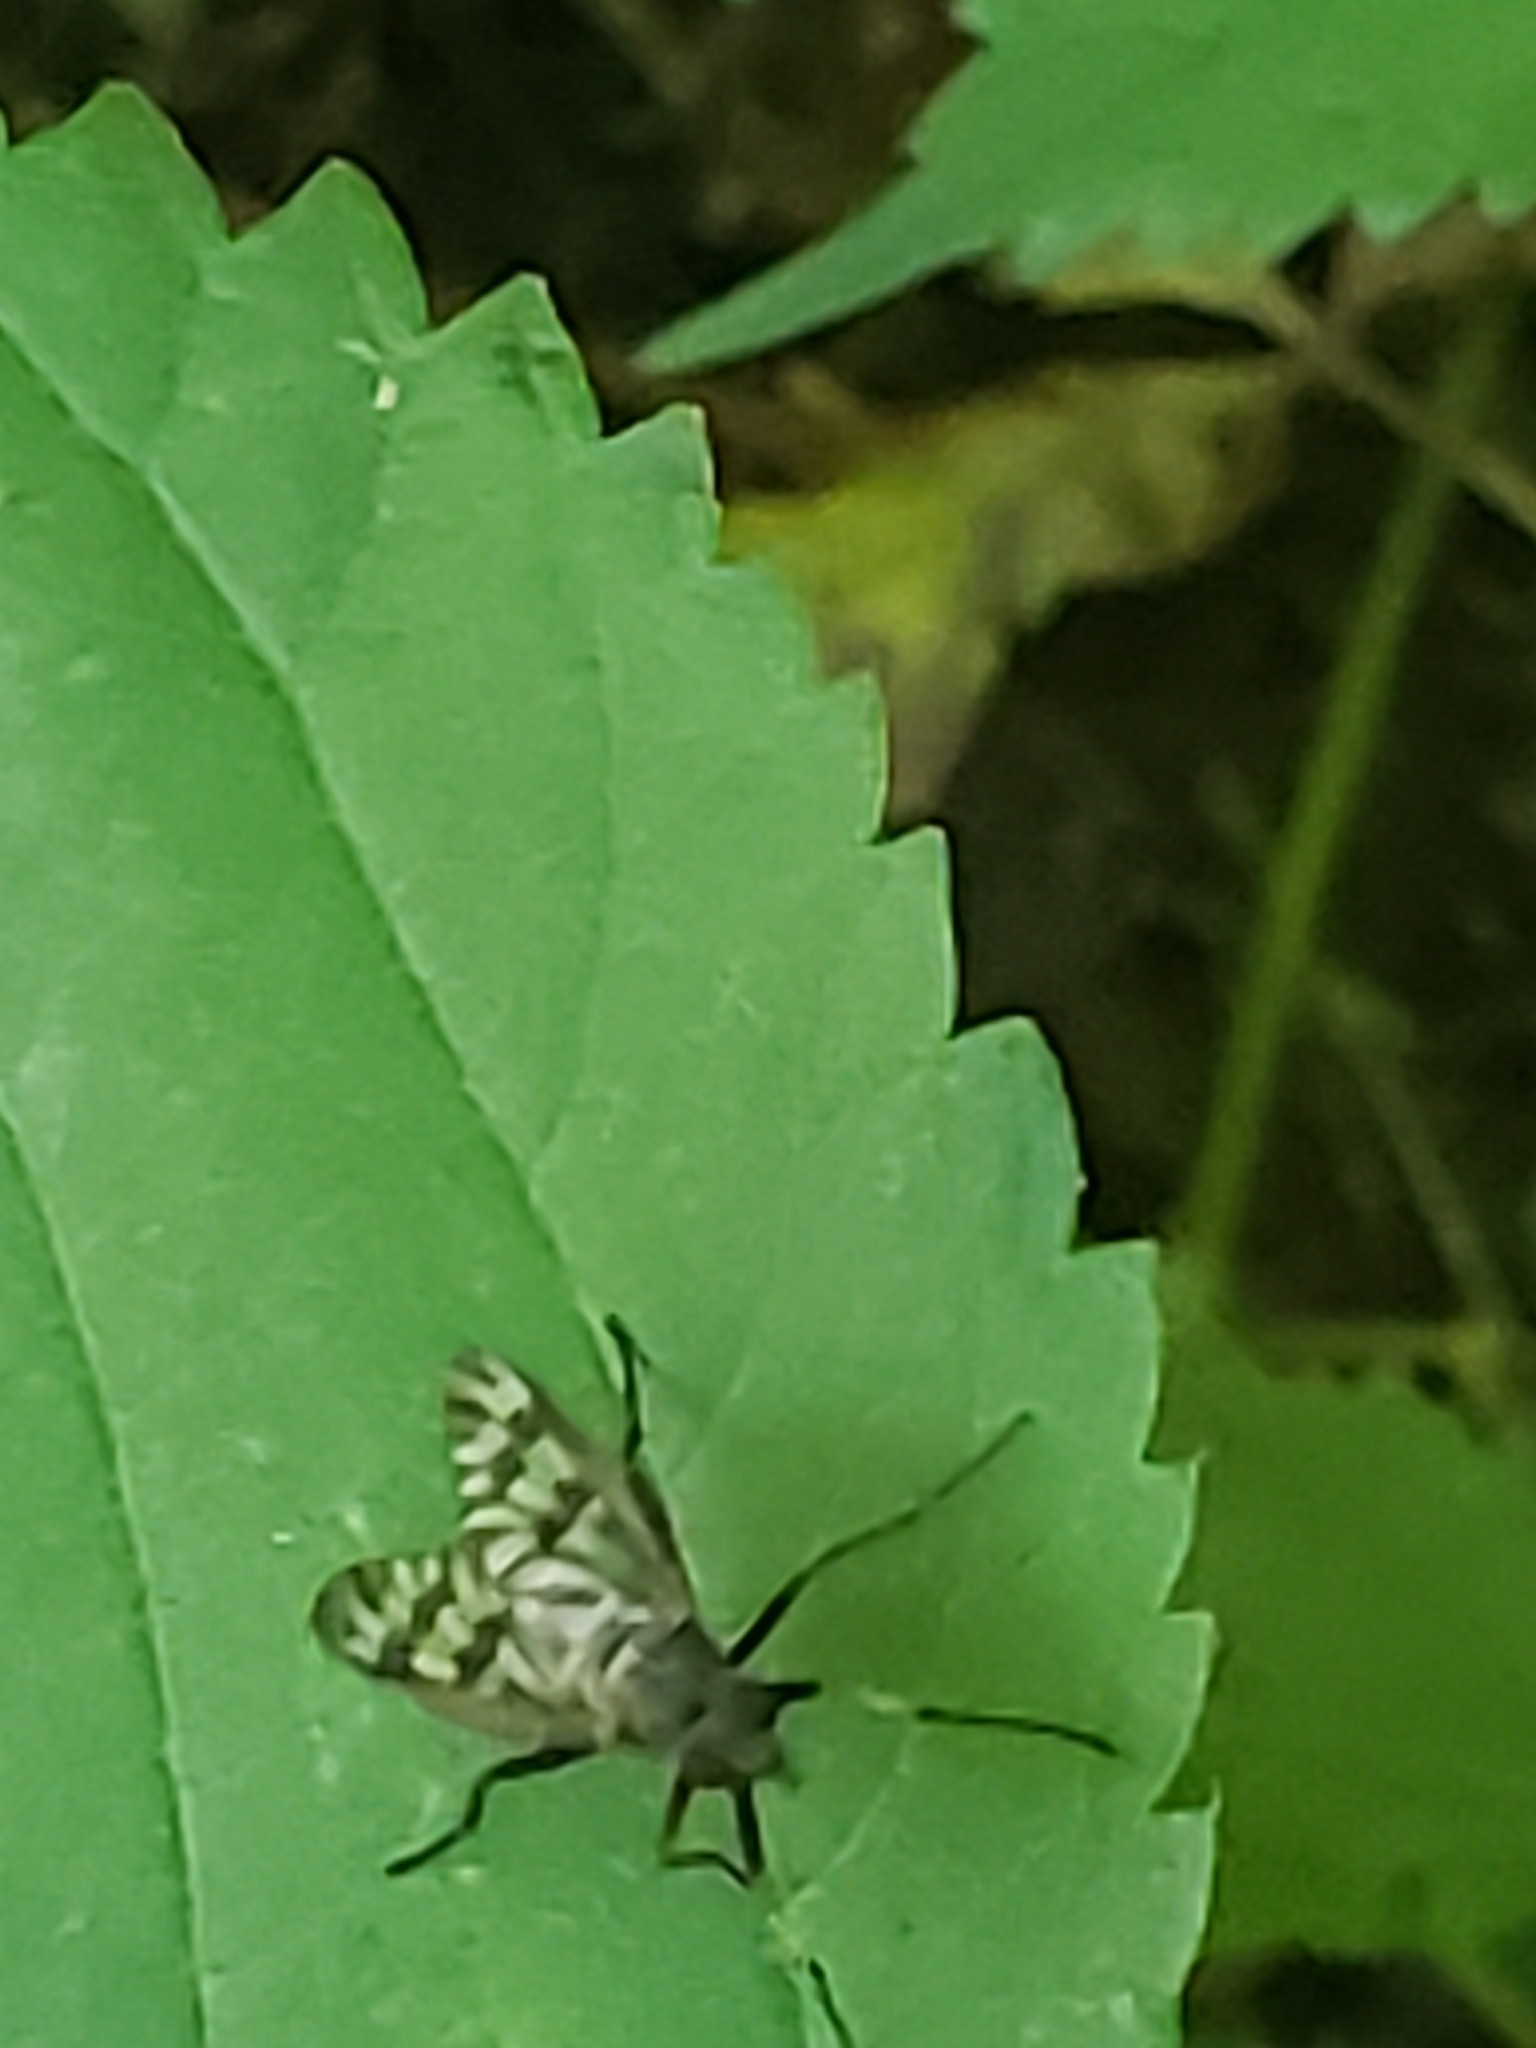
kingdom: Animalia
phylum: Arthropoda
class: Insecta
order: Diptera
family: Rhagionidae
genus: Rhagio
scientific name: Rhagio mystaceus
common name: Common snipe fly
